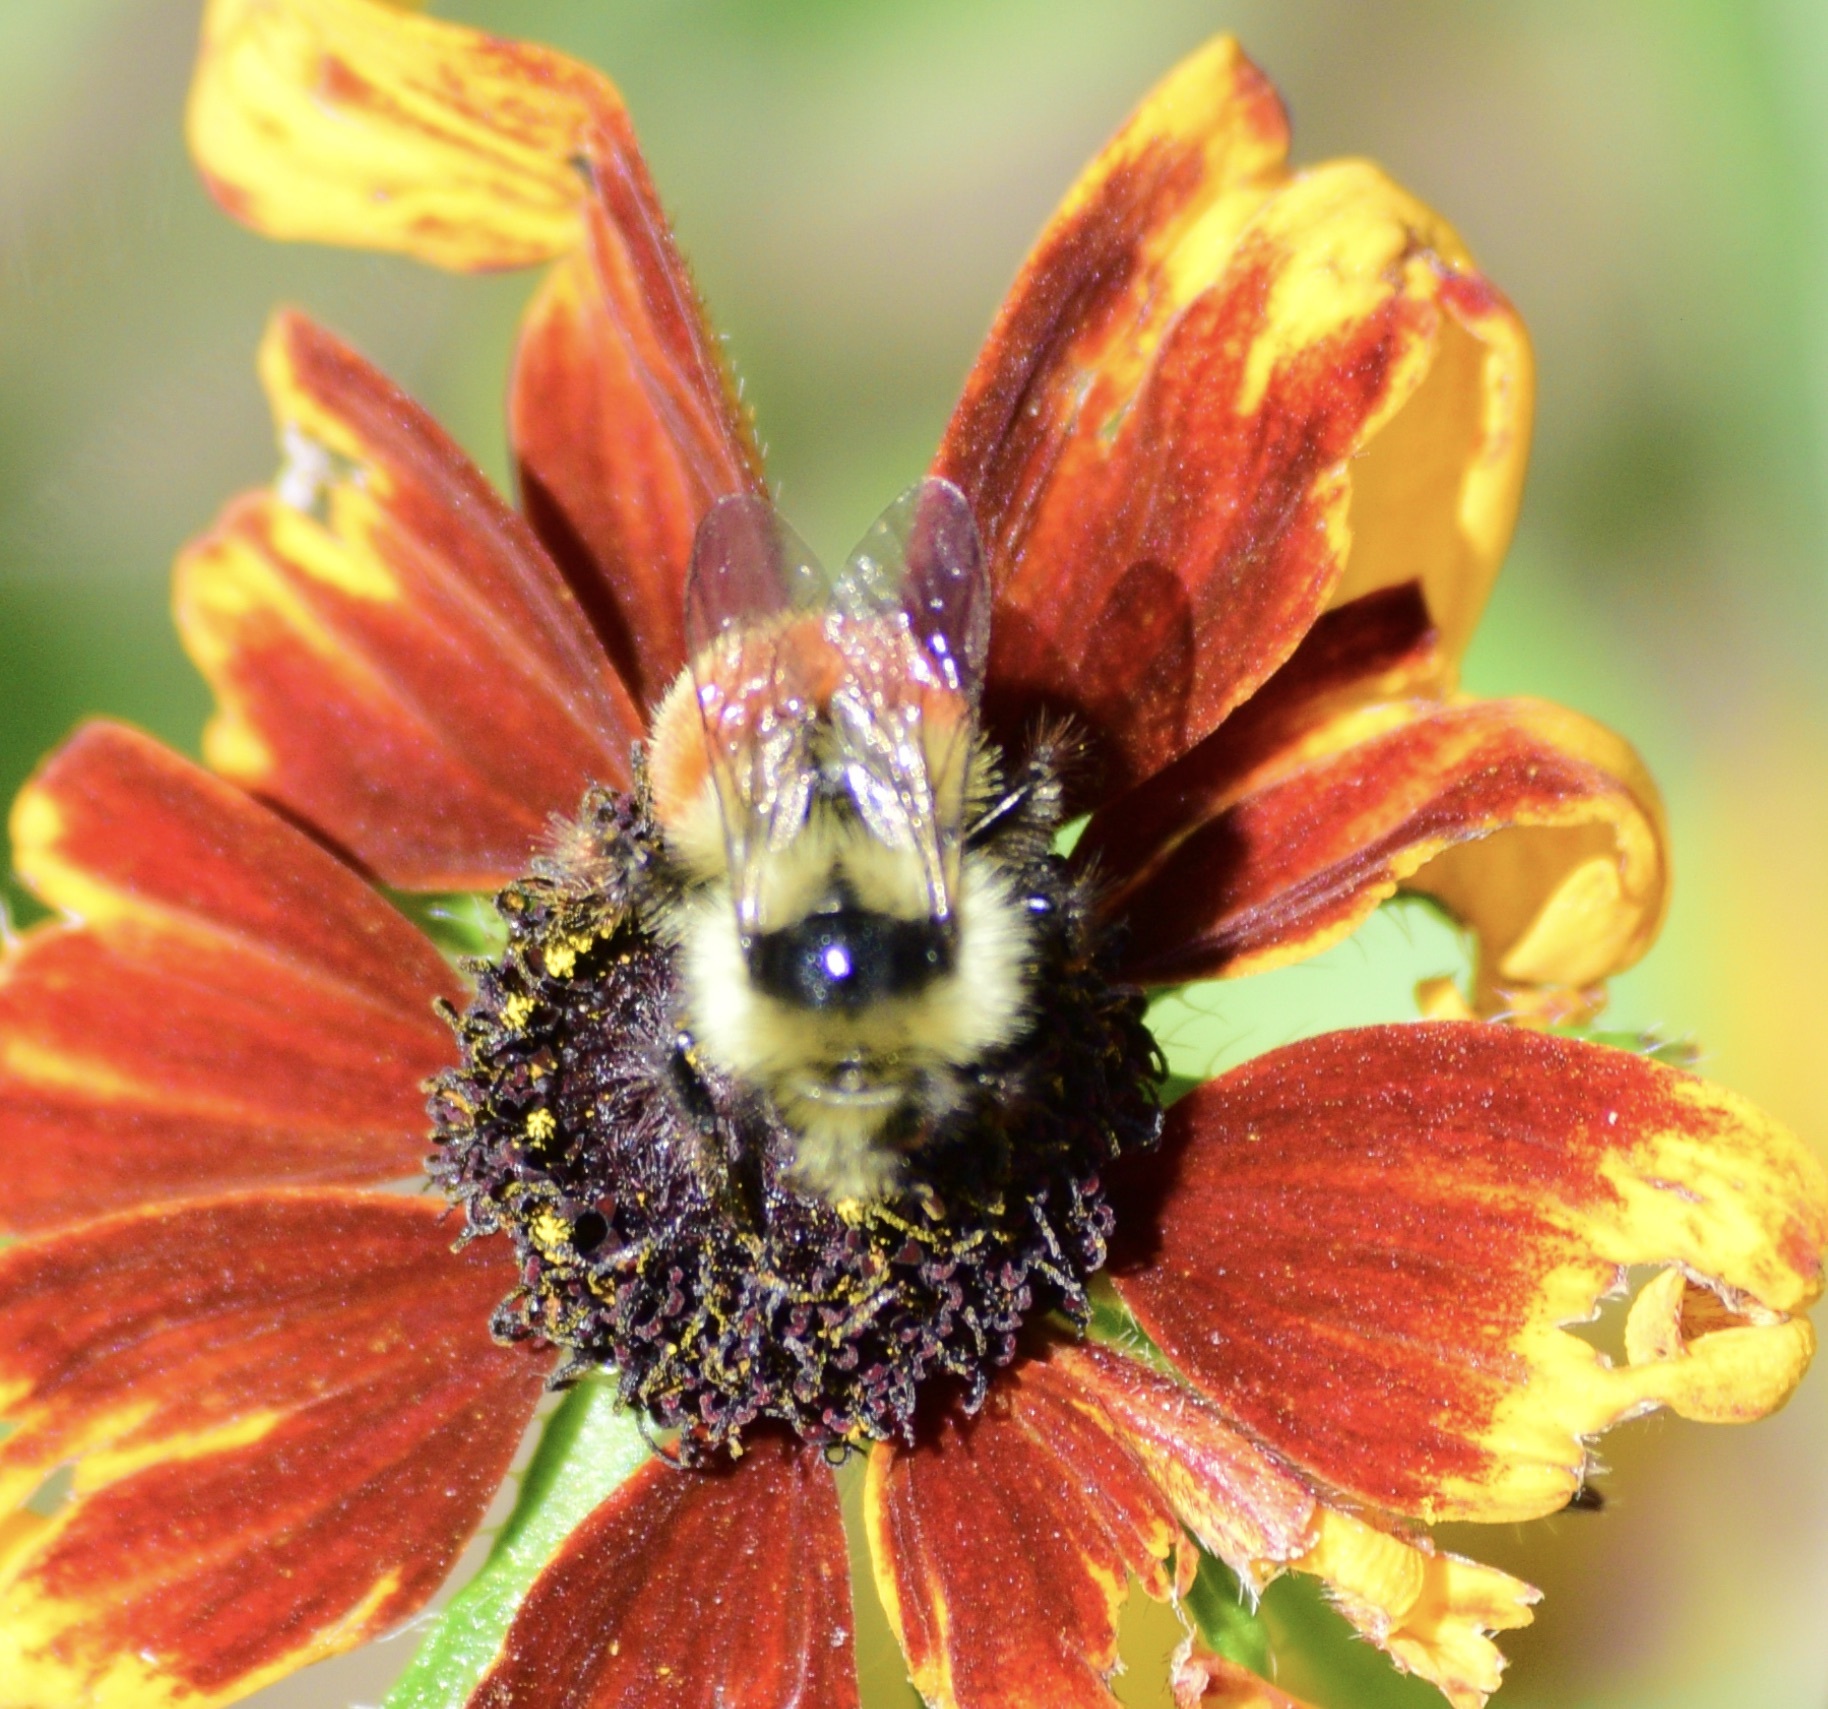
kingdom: Animalia
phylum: Arthropoda
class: Insecta
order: Hymenoptera
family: Apidae
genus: Bombus
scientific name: Bombus ternarius
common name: Tri-colored bumble bee
